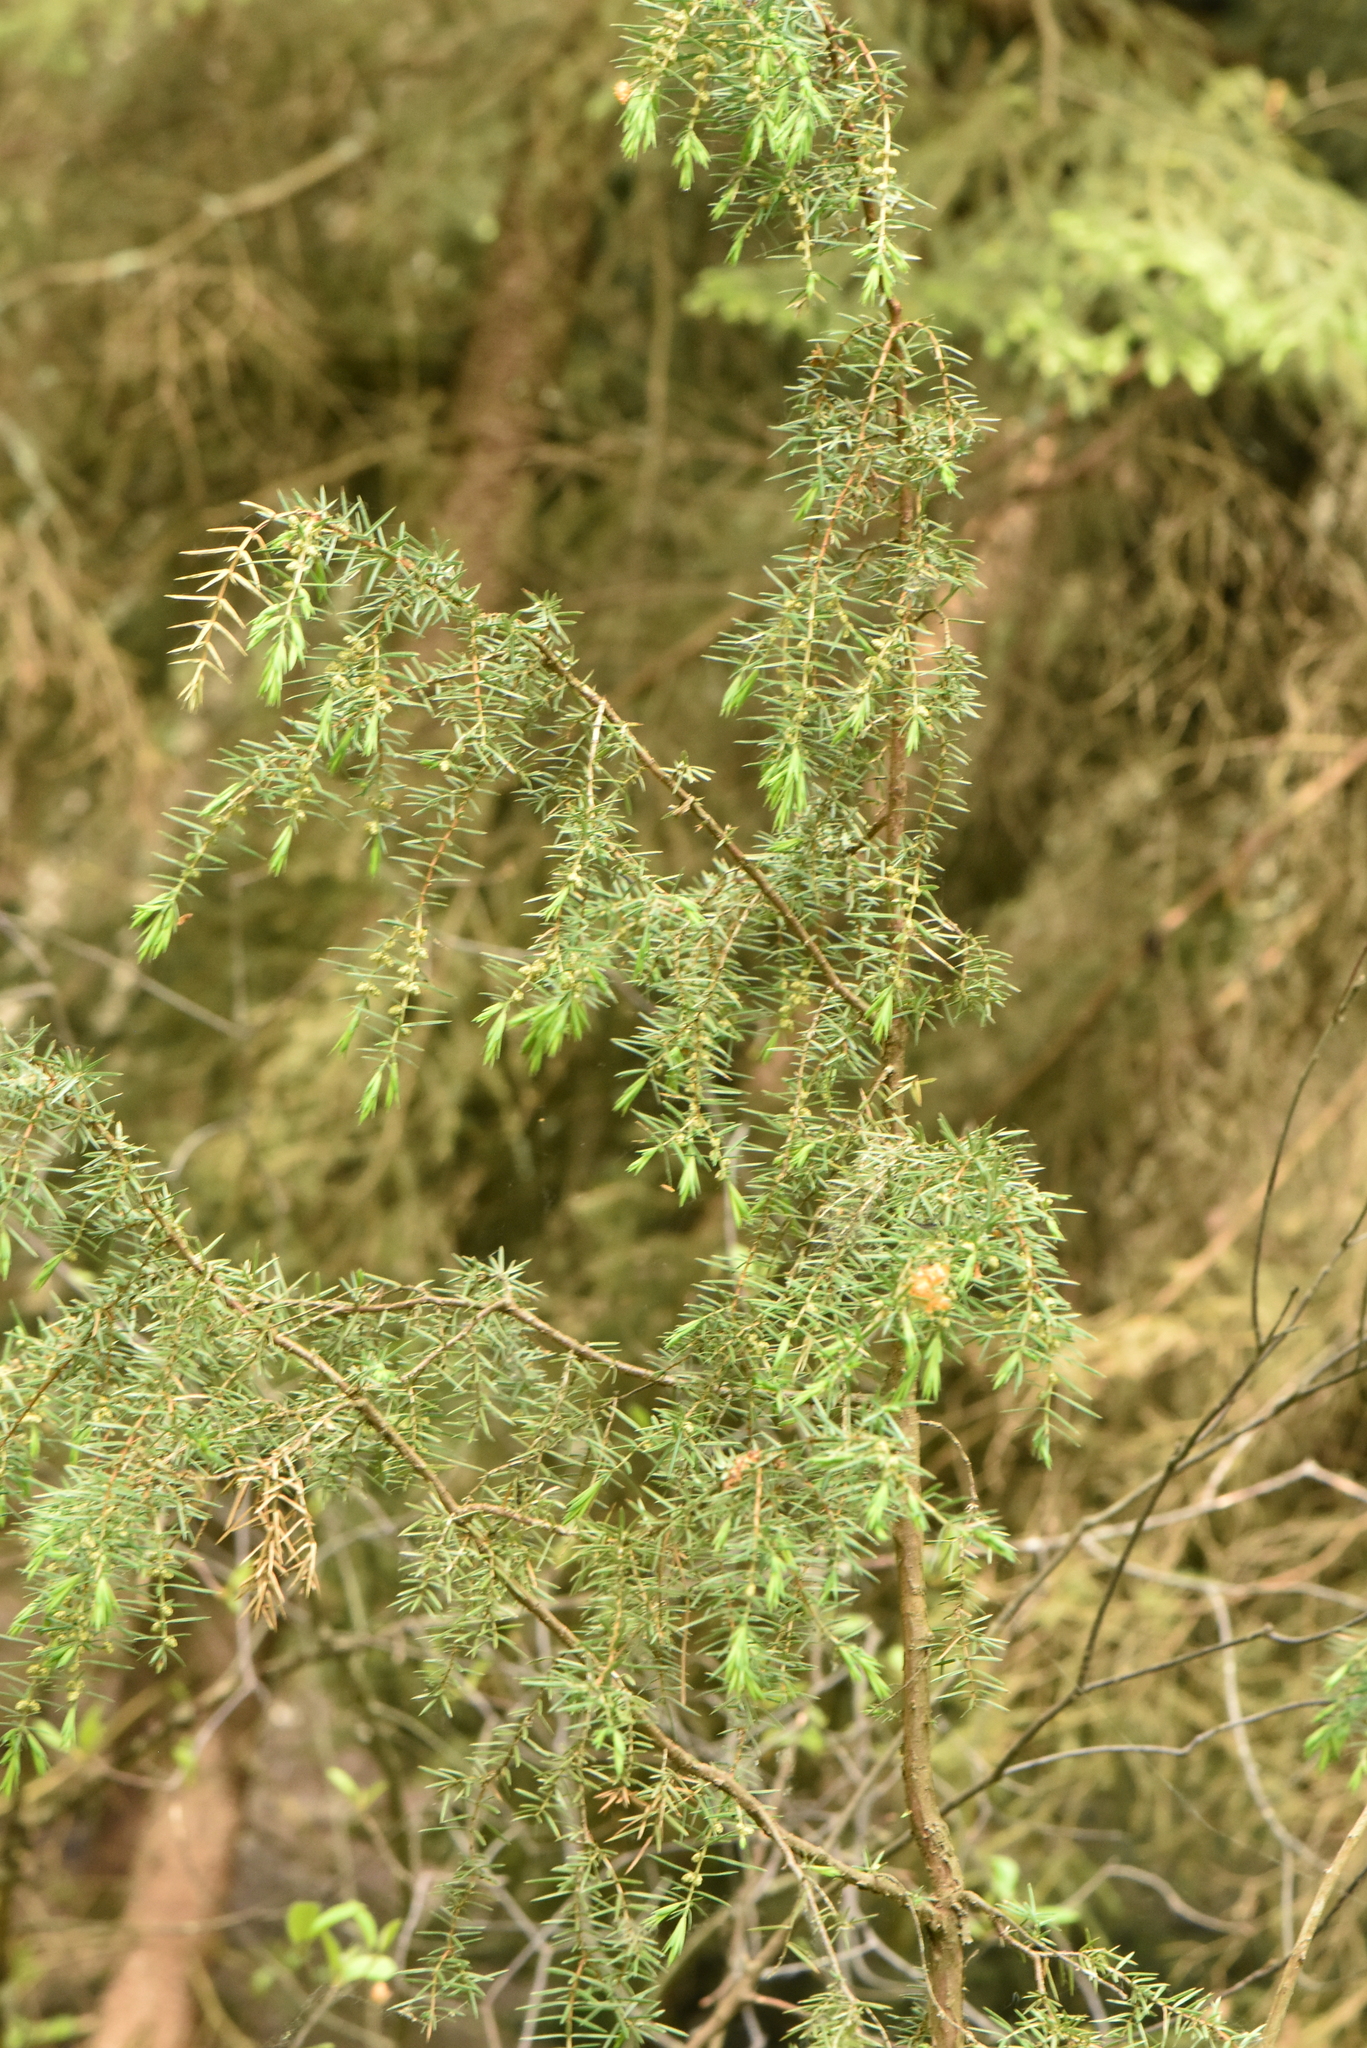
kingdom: Plantae
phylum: Tracheophyta
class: Pinopsida
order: Pinales
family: Cupressaceae
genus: Juniperus
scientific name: Juniperus communis
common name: Common juniper
